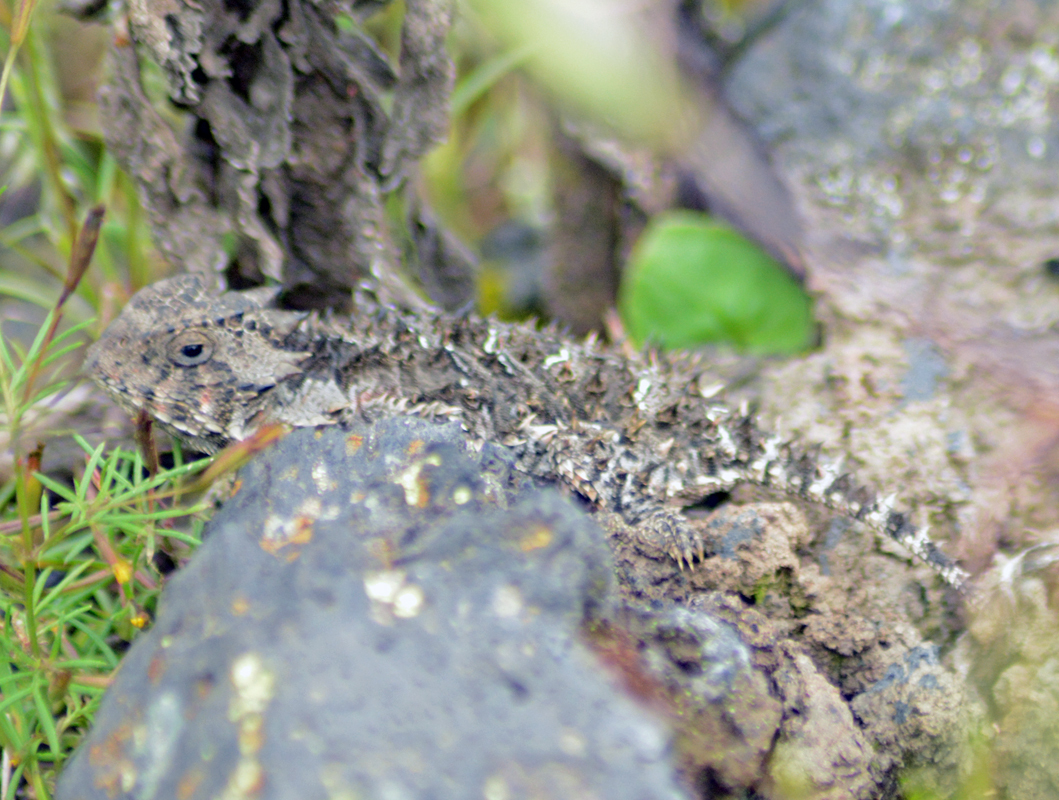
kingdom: Animalia
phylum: Chordata
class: Squamata
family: Phrynosomatidae
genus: Phrynosoma
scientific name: Phrynosoma orbiculare
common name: Mountain horned lizard
